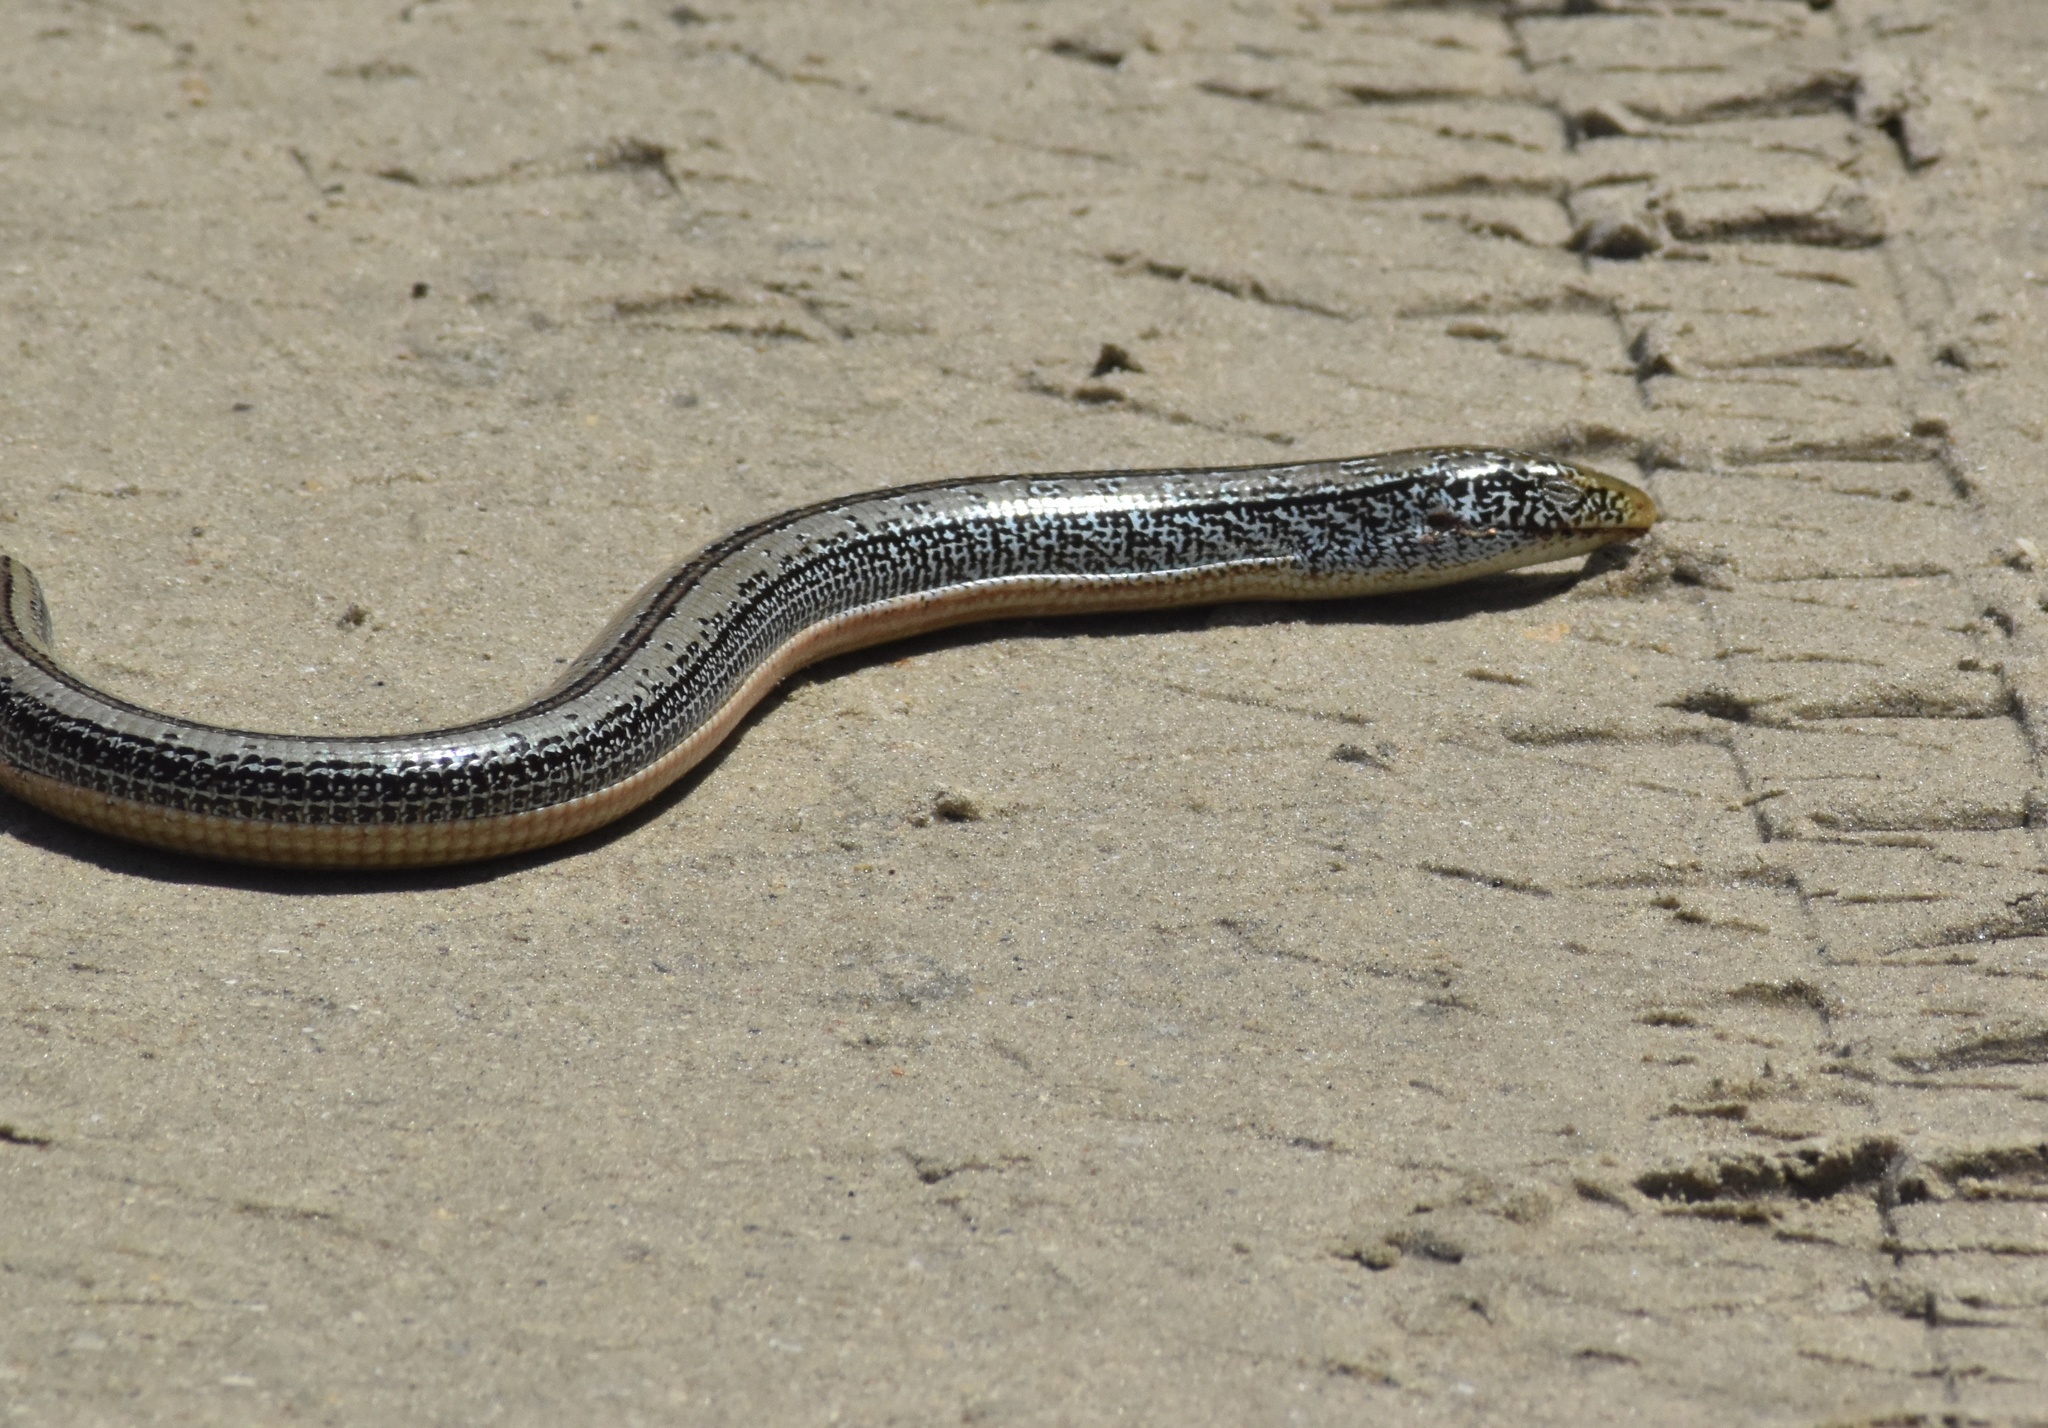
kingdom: Animalia
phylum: Chordata
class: Squamata
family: Anguidae
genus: Ophisaurus
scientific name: Ophisaurus attenuatus
